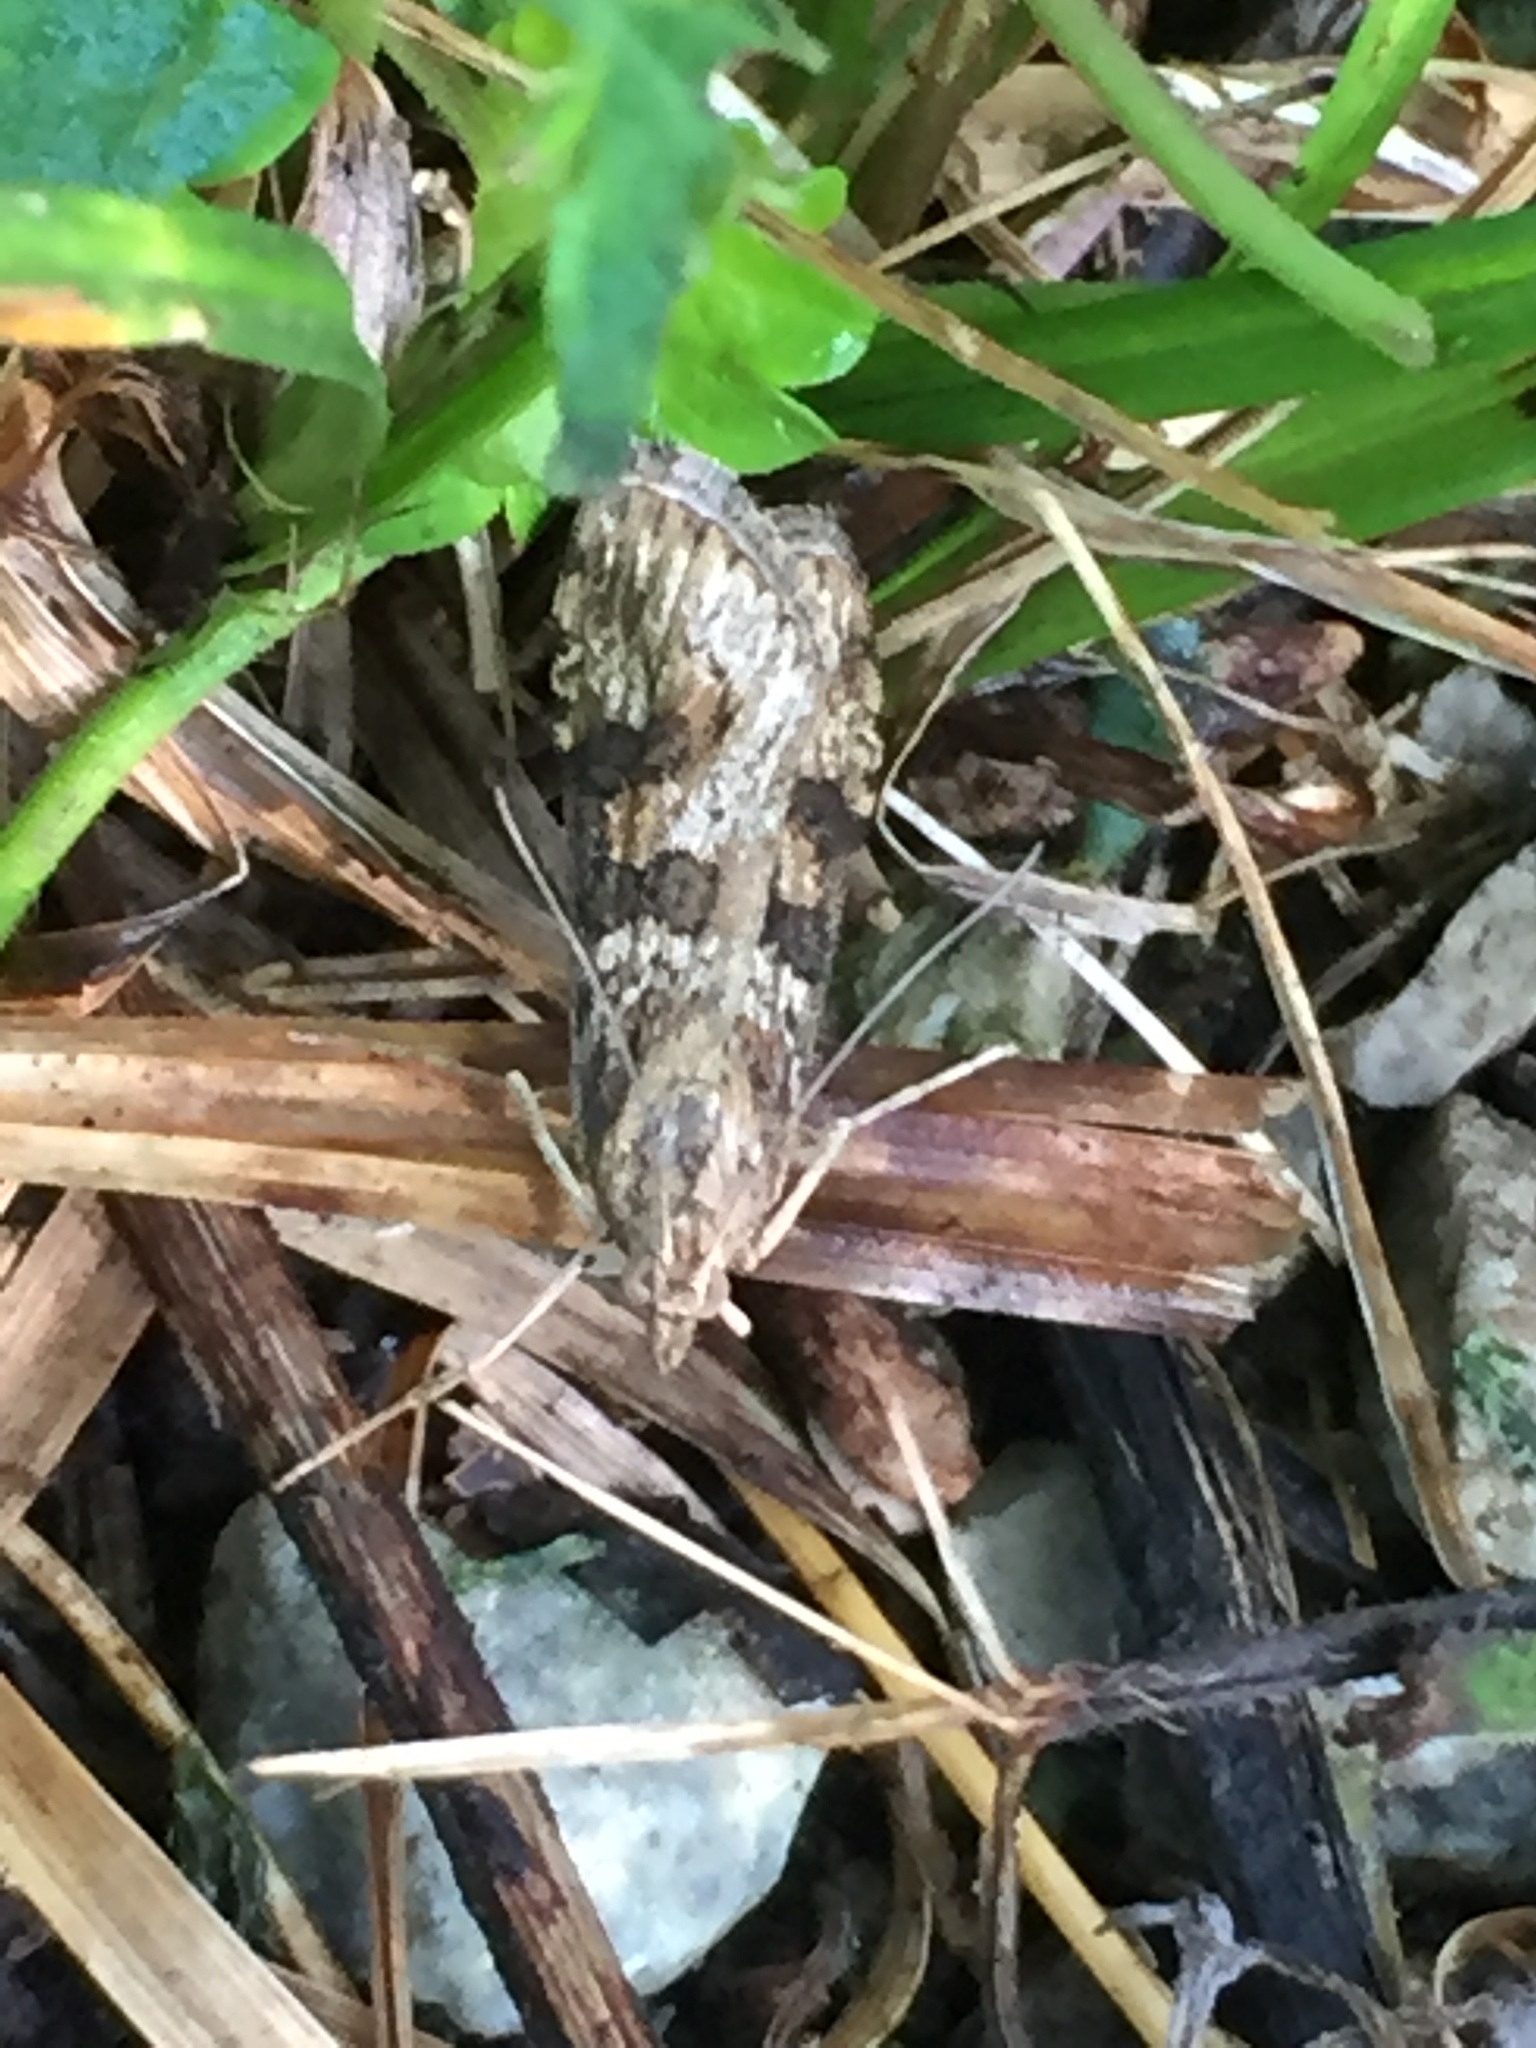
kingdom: Animalia
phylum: Arthropoda
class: Insecta
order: Lepidoptera
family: Crambidae
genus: Nomophila
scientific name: Nomophila nearctica
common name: American rush veneer
